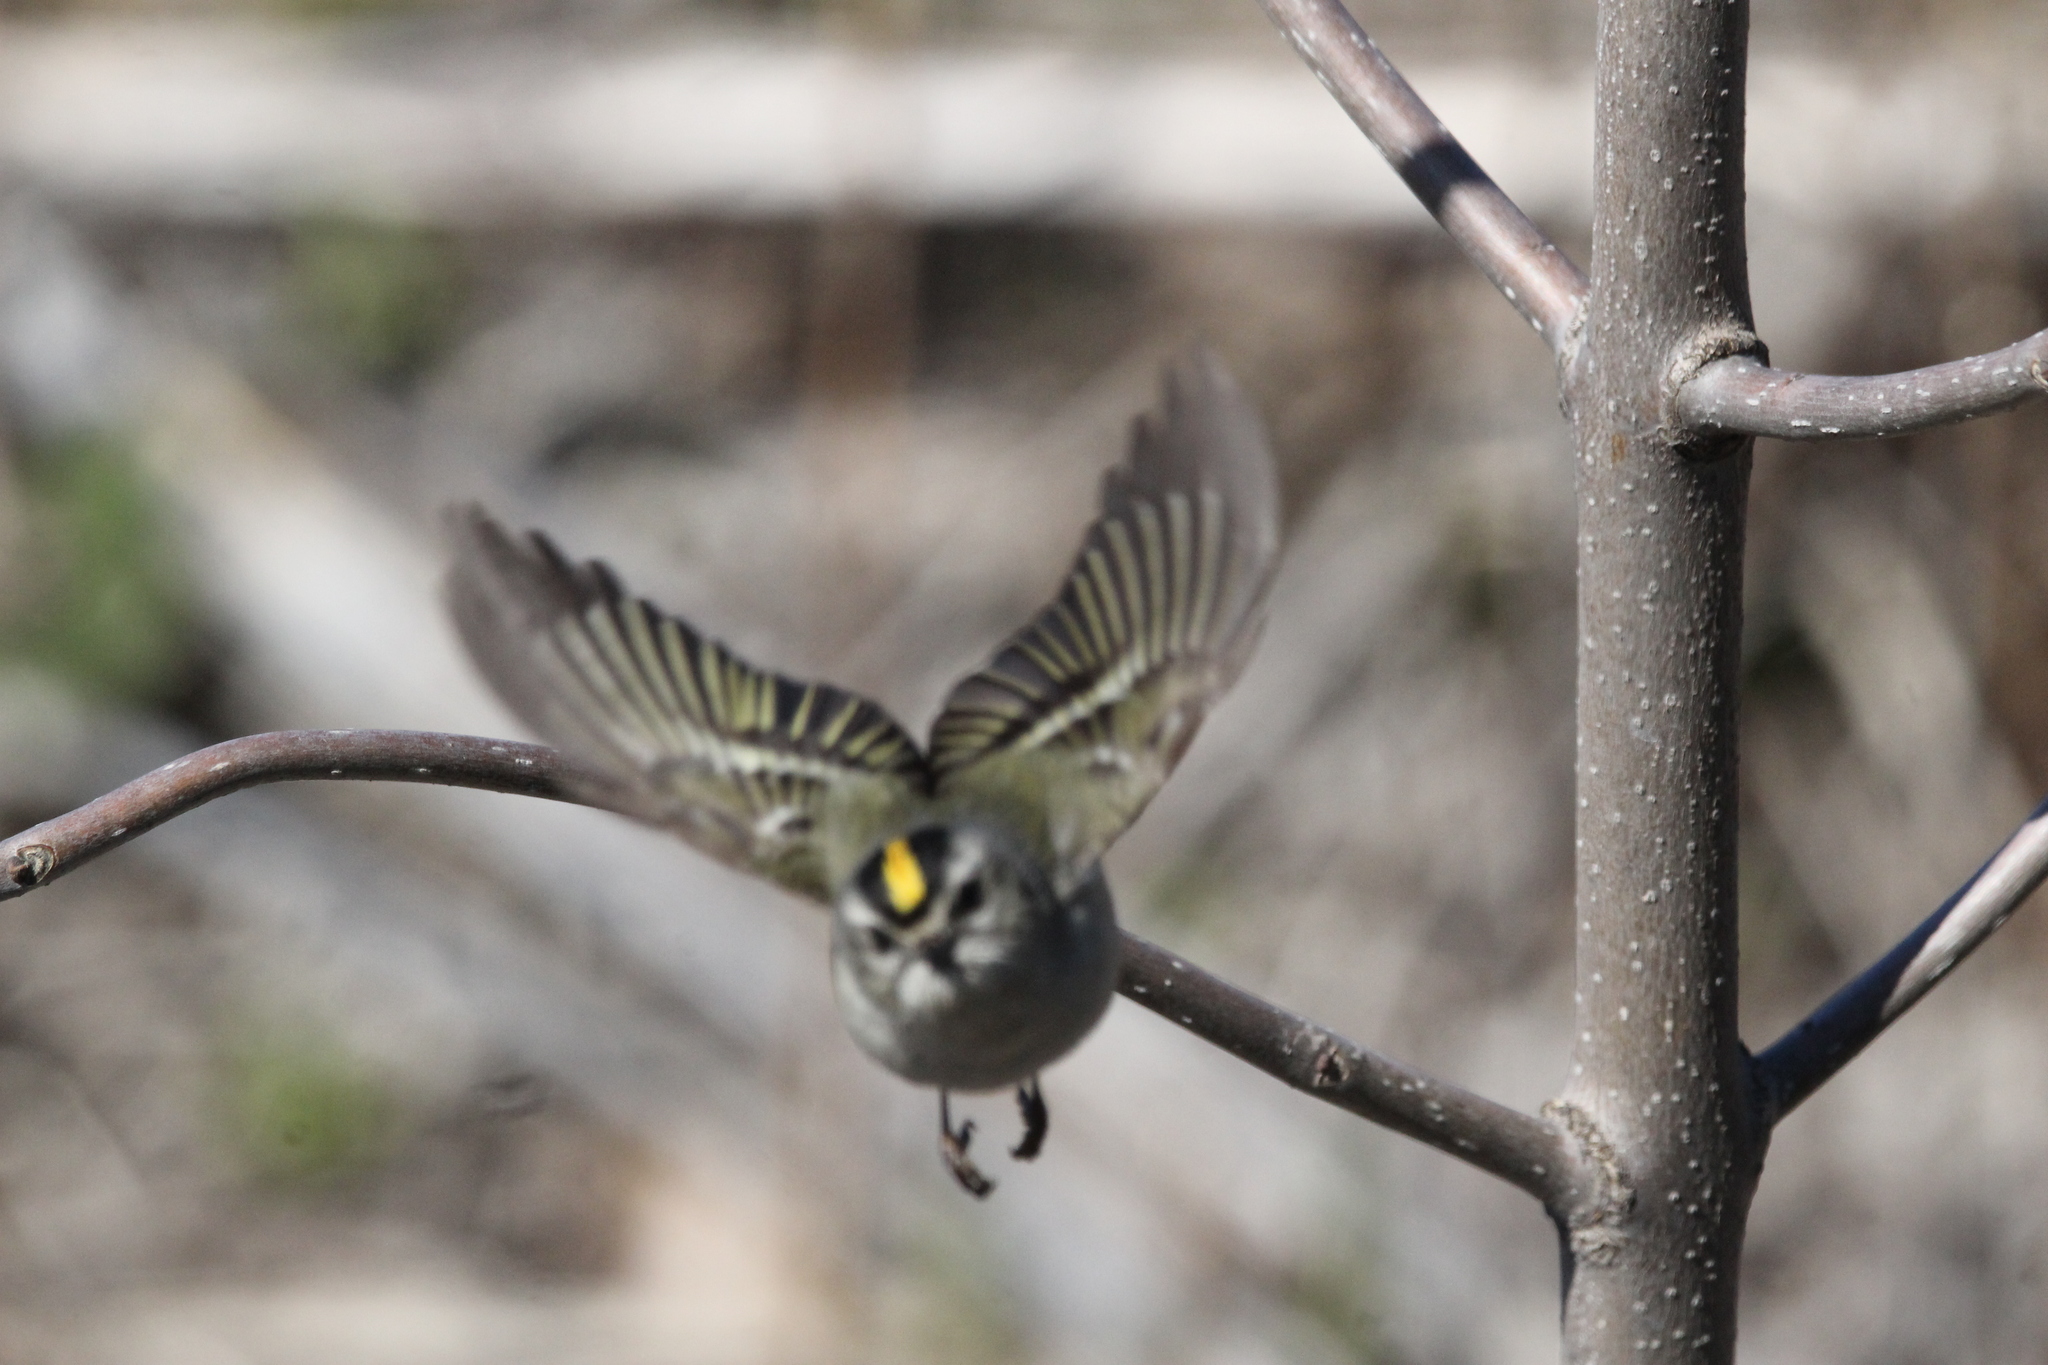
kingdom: Animalia
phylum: Chordata
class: Aves
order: Passeriformes
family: Regulidae
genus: Regulus
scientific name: Regulus satrapa
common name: Golden-crowned kinglet
